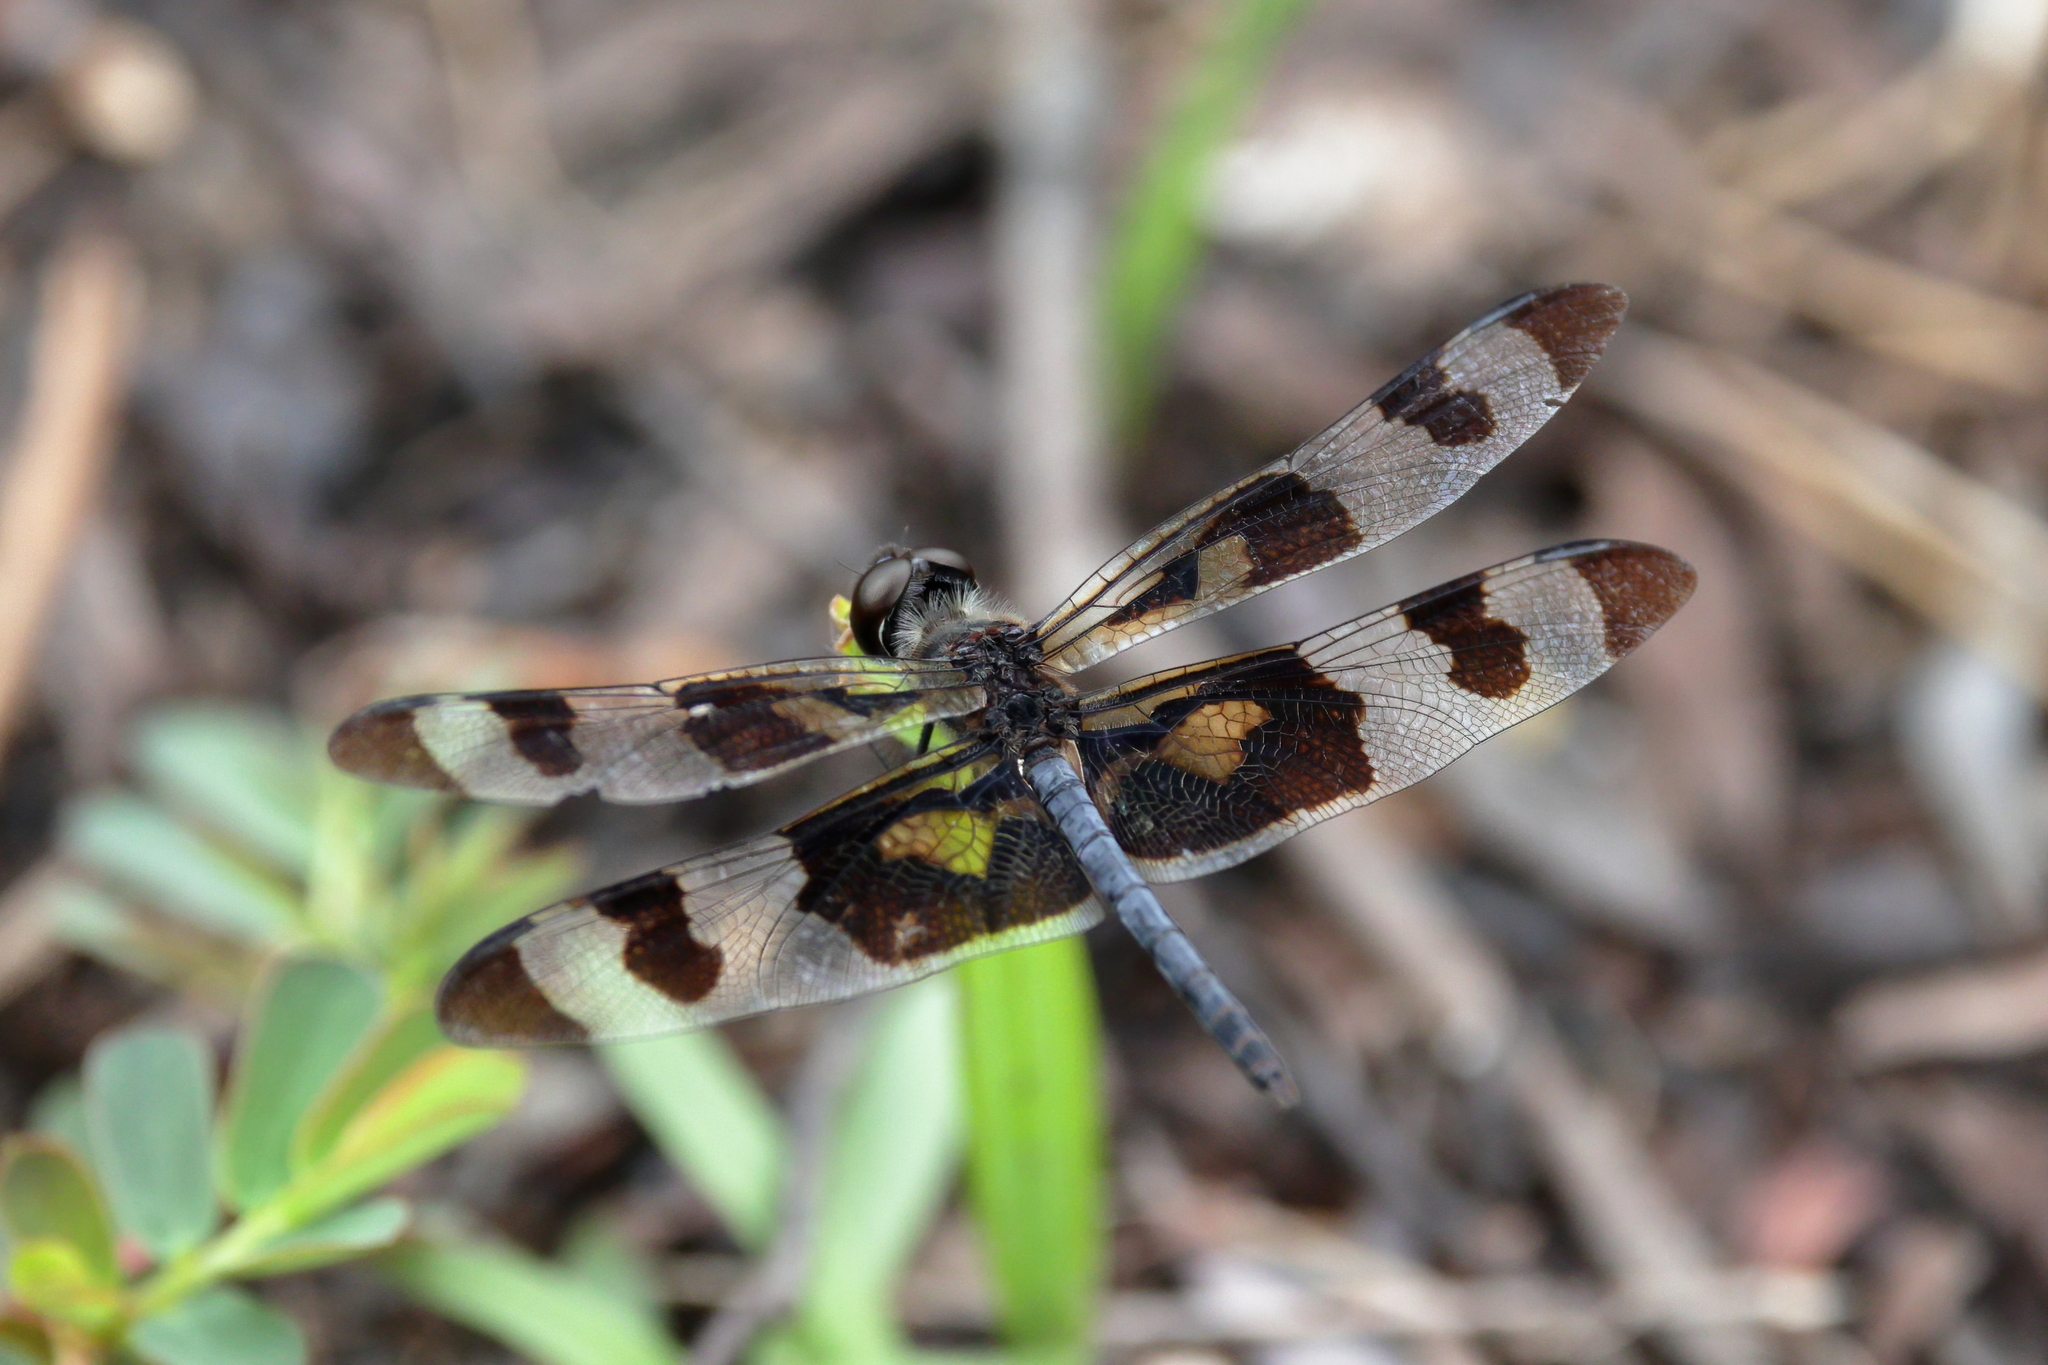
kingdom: Animalia
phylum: Arthropoda
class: Insecta
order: Odonata
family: Libellulidae
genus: Celithemis
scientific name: Celithemis fasciata
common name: Banded pennant
